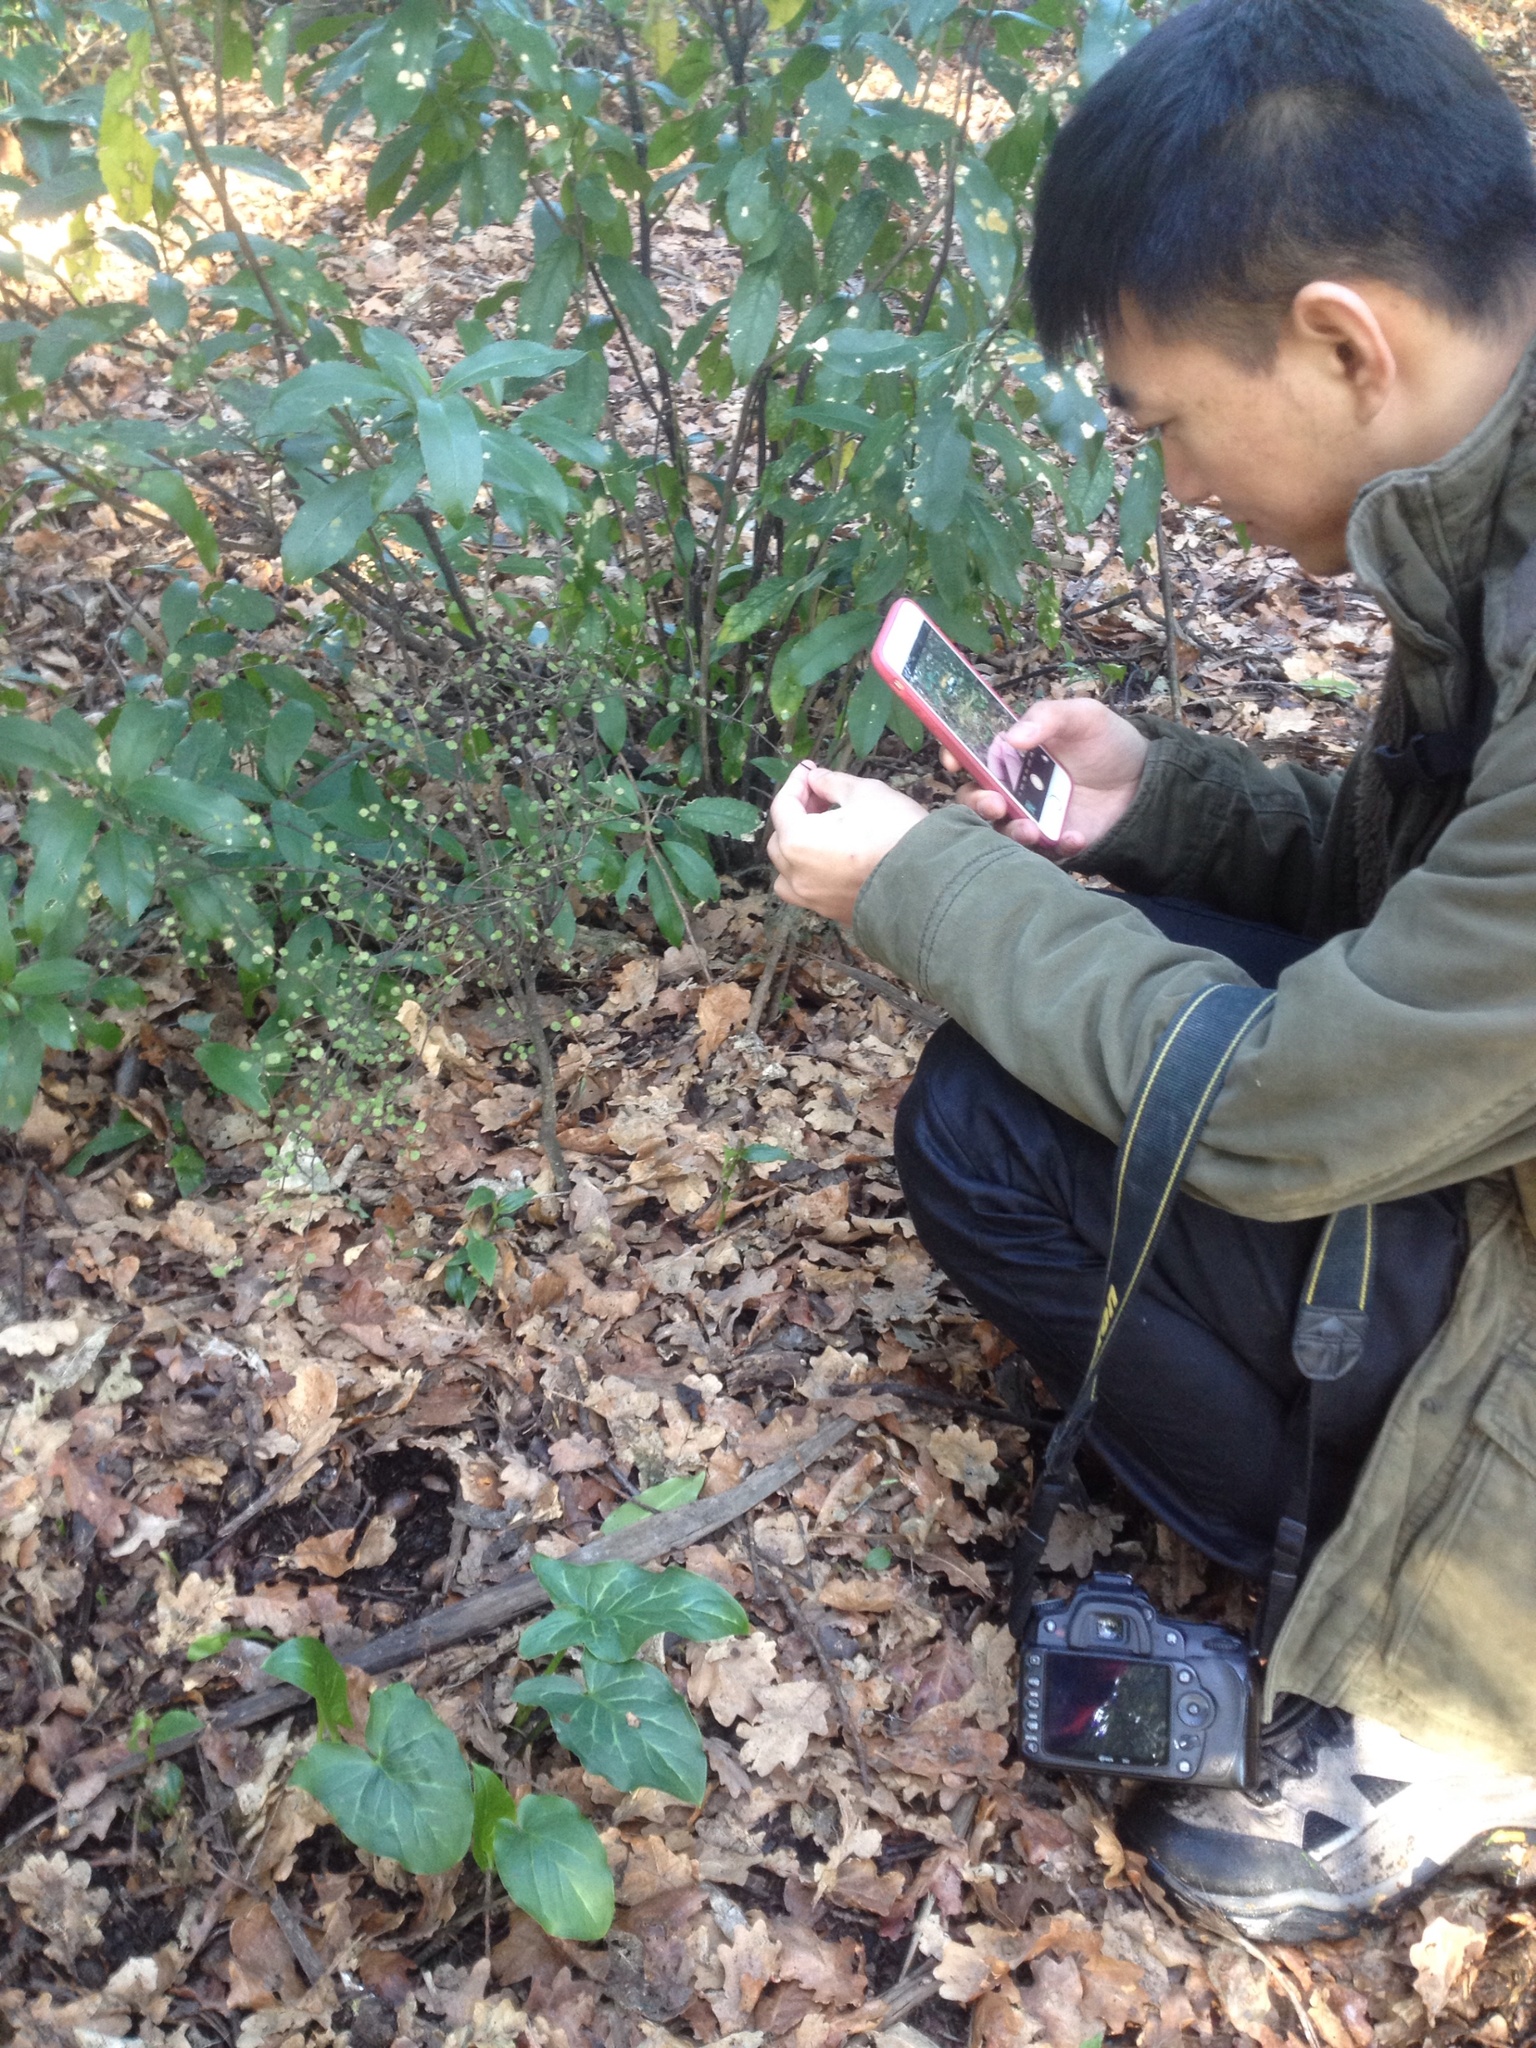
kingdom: Plantae
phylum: Tracheophyta
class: Magnoliopsida
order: Rosales
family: Moraceae
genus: Paratrophis
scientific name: Paratrophis microphylla
